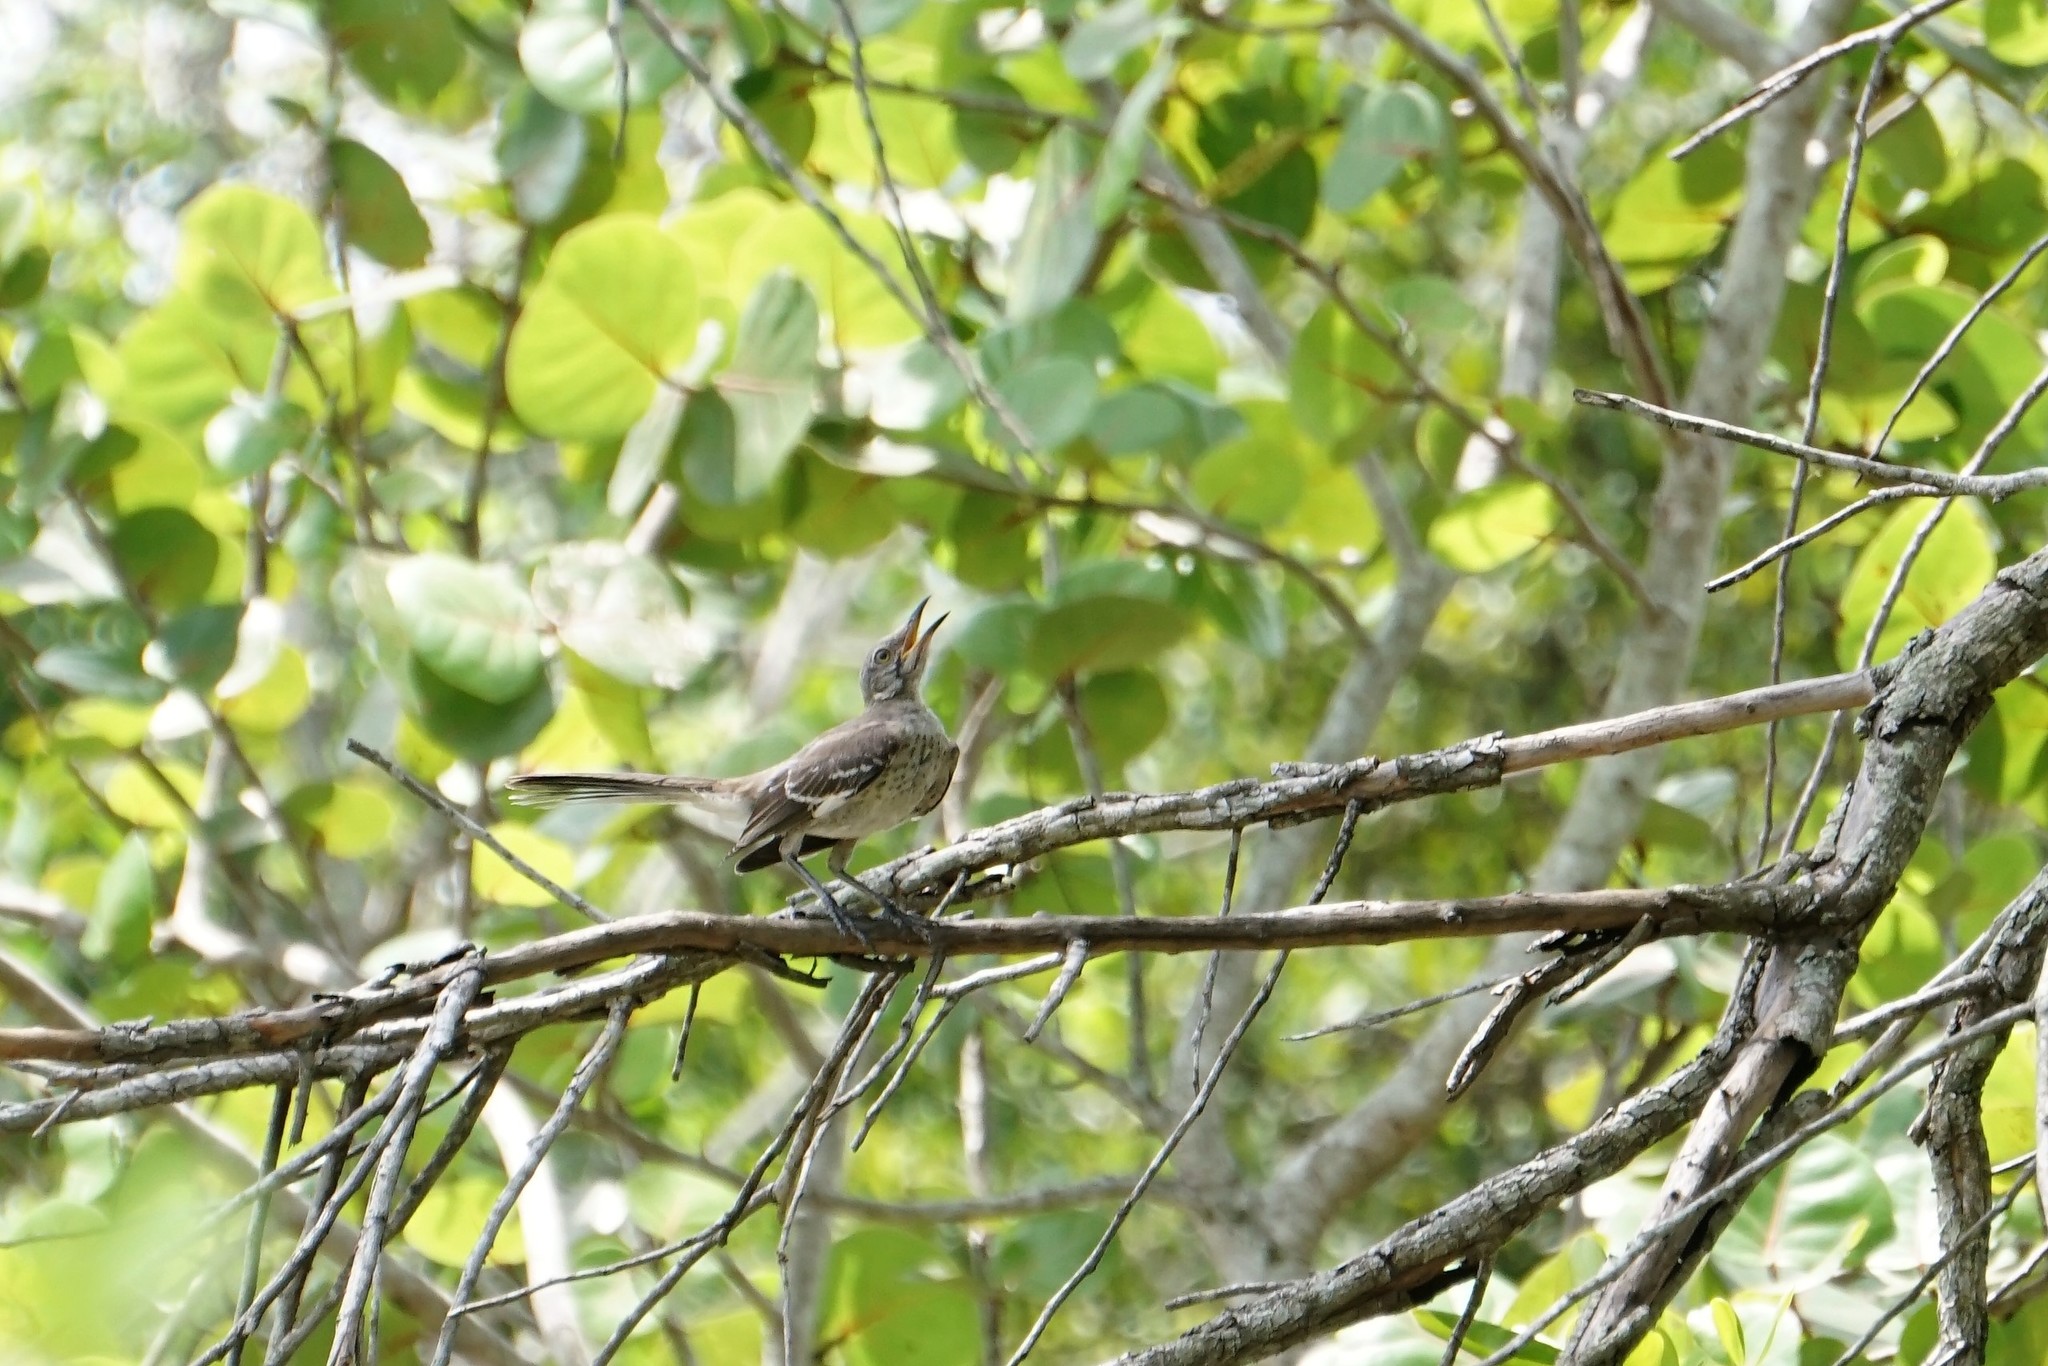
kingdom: Animalia
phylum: Chordata
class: Aves
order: Passeriformes
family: Mimidae
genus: Mimus
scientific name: Mimus polyglottos
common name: Northern mockingbird
